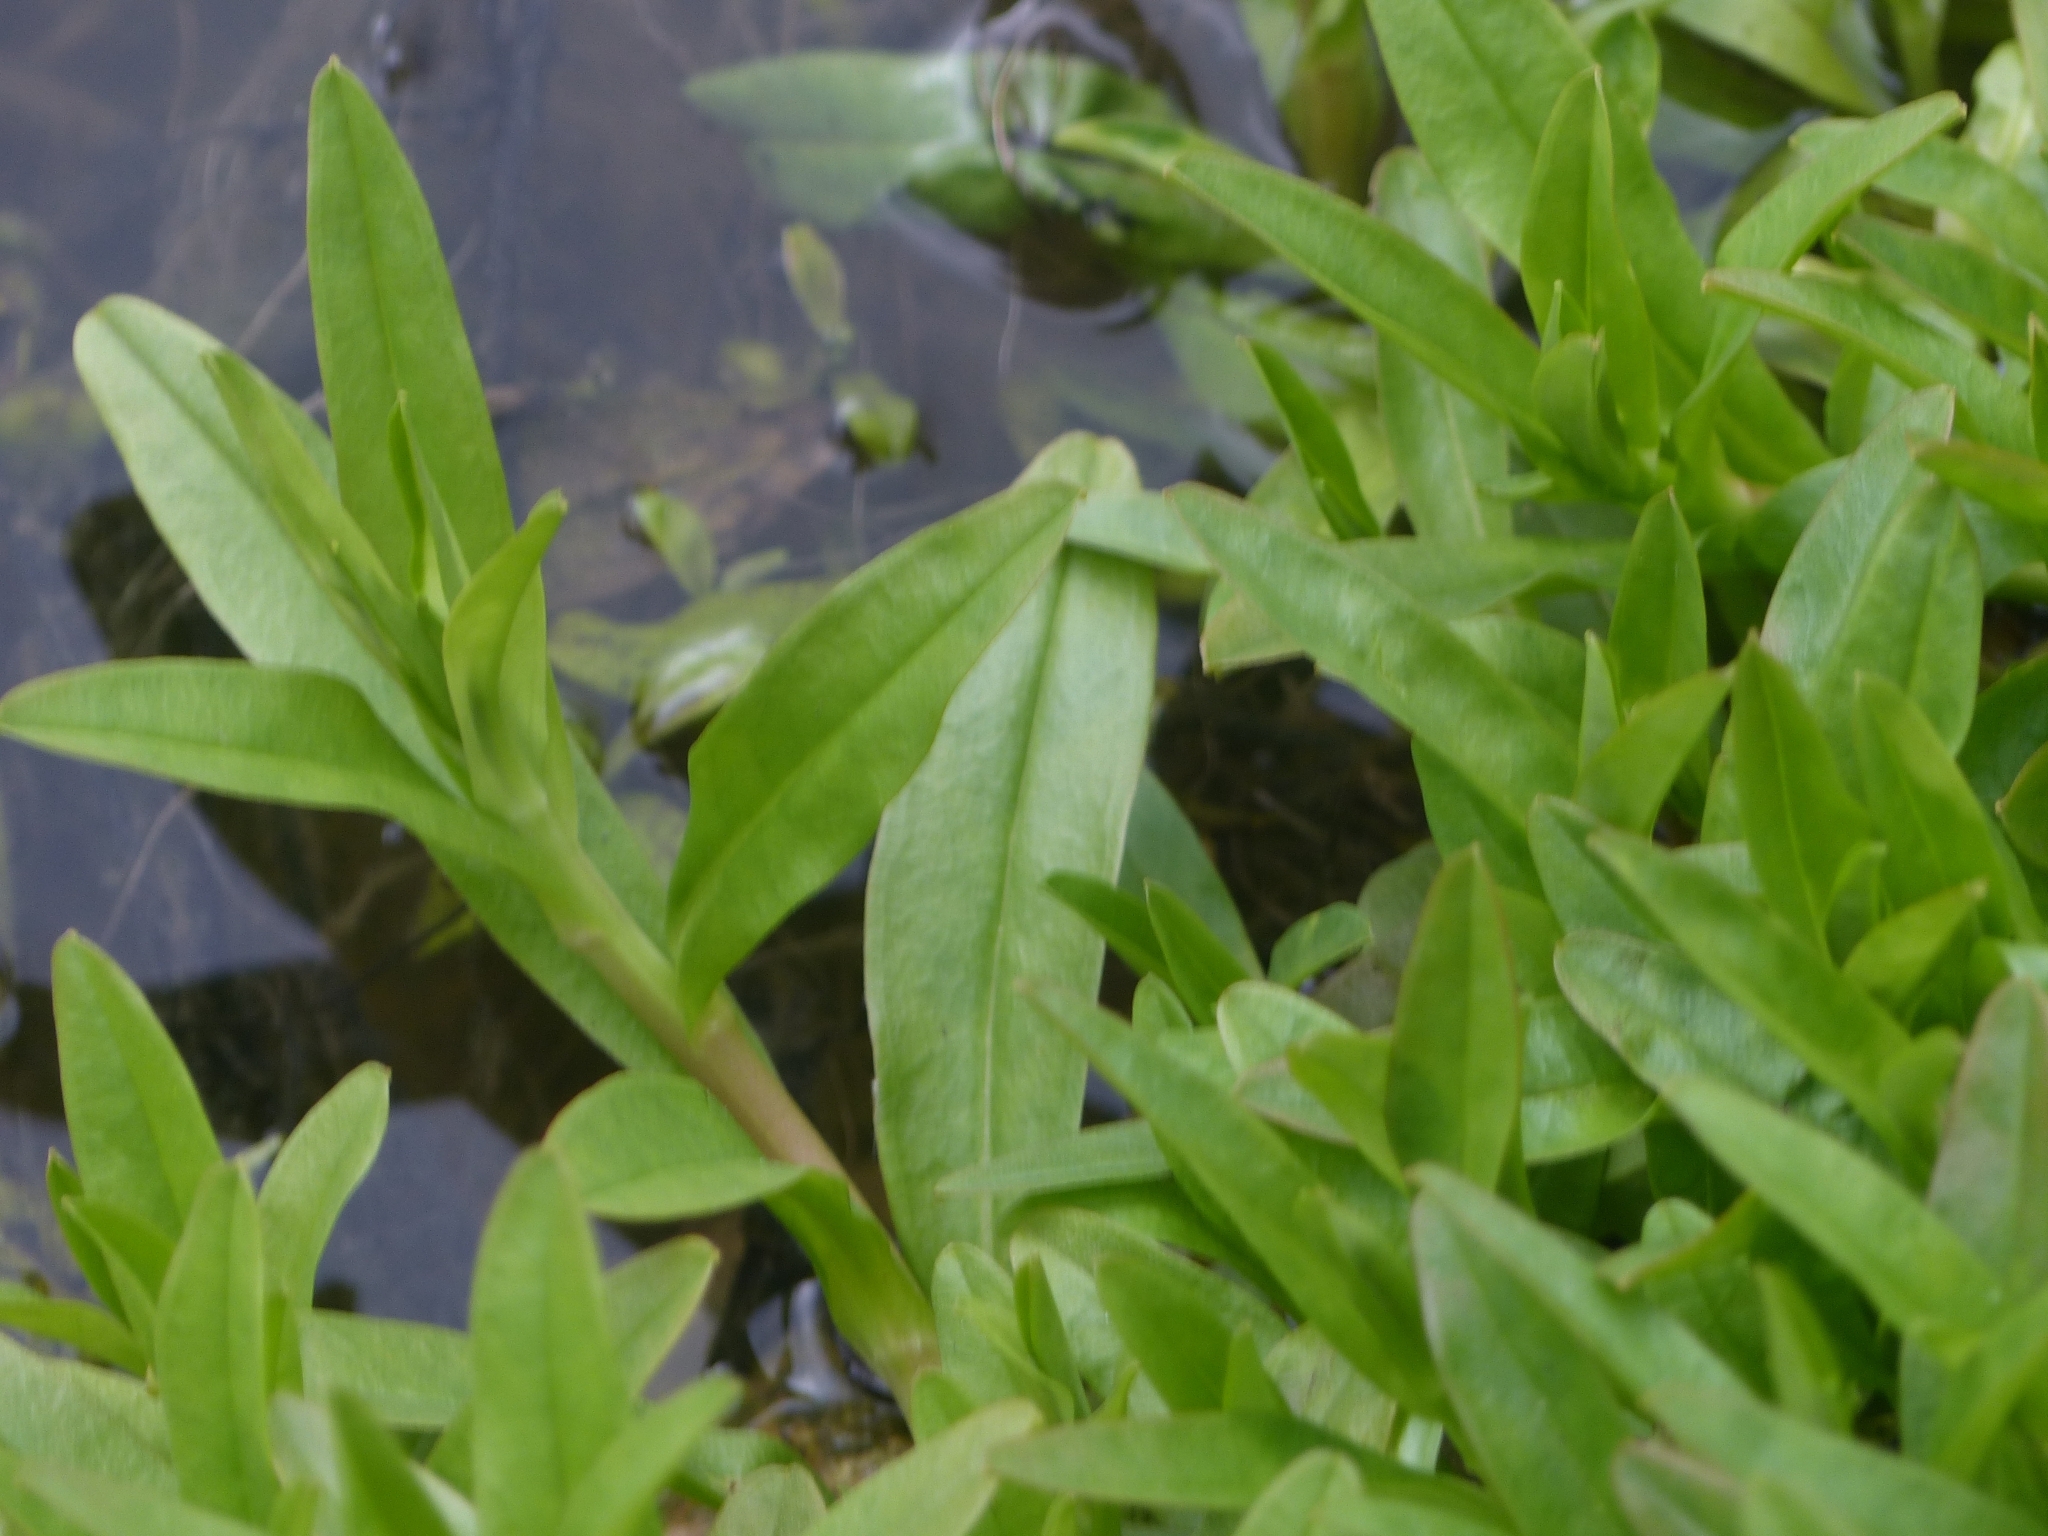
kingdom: Plantae
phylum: Tracheophyta
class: Magnoliopsida
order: Boraginales
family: Boraginaceae
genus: Myosotis
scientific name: Myosotis scorpioides
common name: Water forget-me-not
